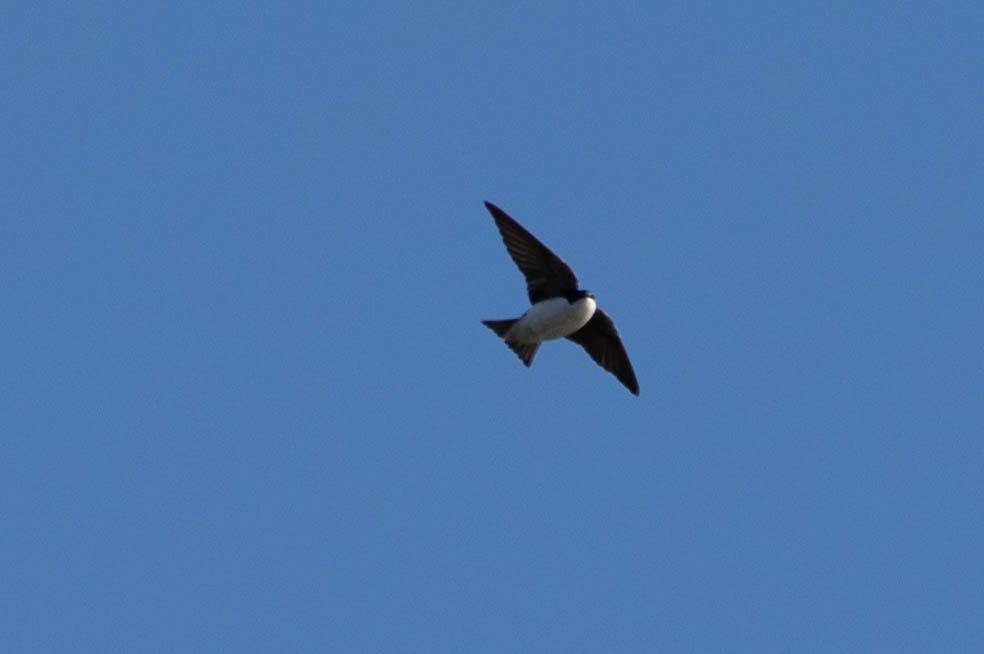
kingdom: Animalia
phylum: Chordata
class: Aves
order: Passeriformes
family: Hirundinidae
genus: Tachycineta
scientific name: Tachycineta bicolor
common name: Tree swallow
